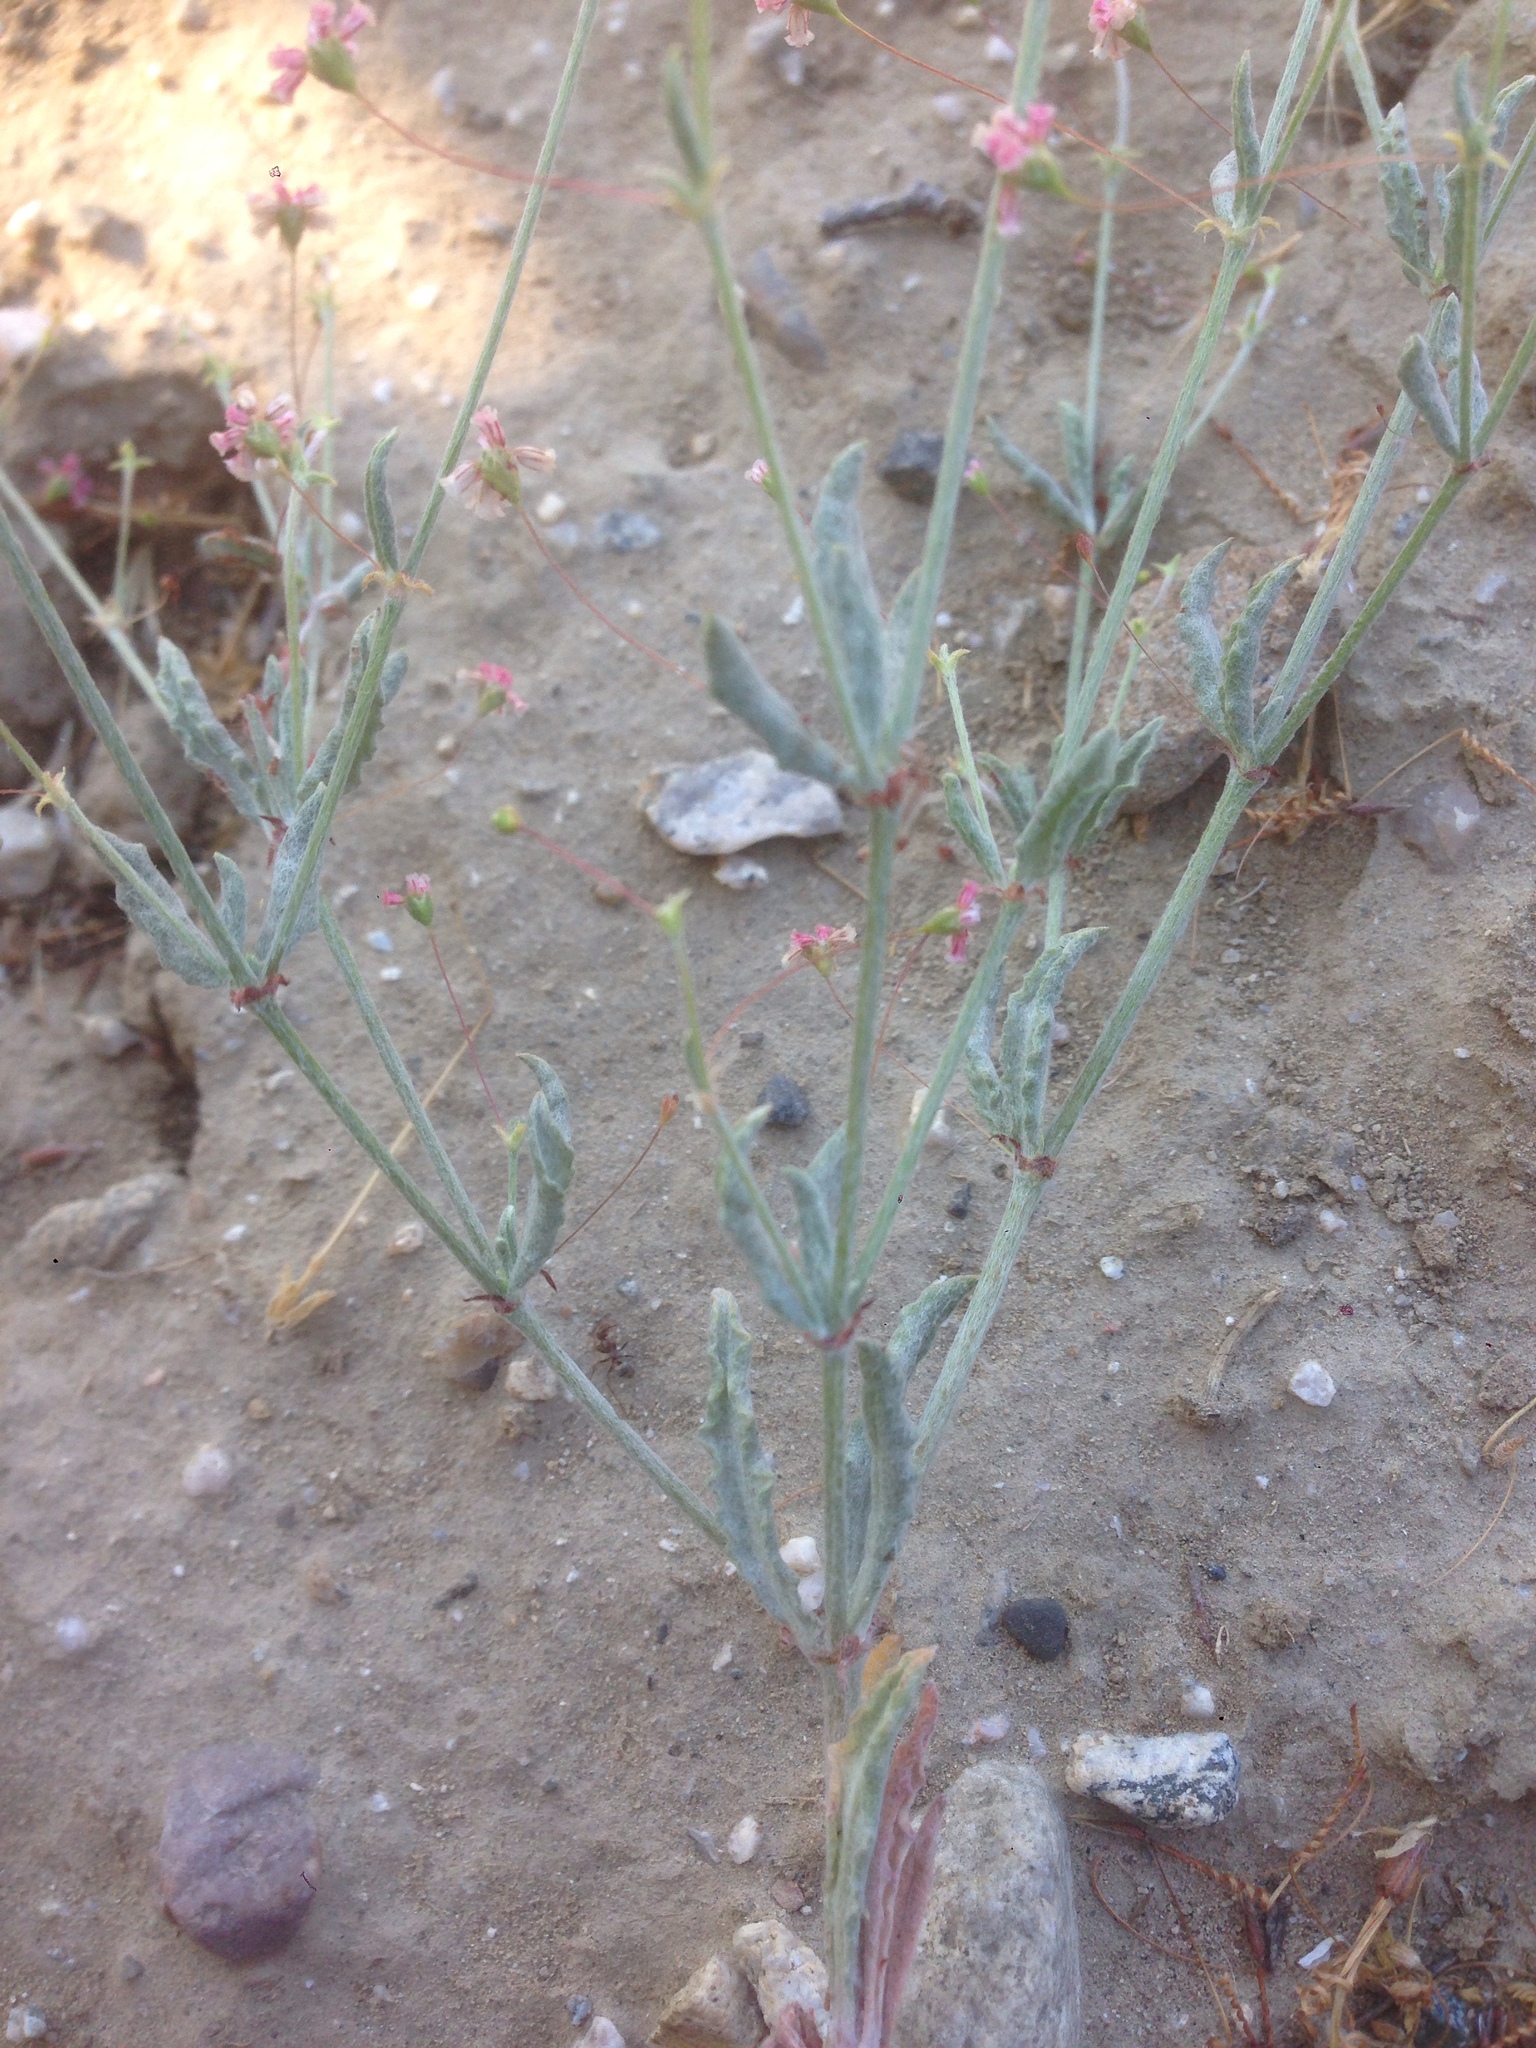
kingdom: Plantae
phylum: Tracheophyta
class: Magnoliopsida
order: Caryophyllales
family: Polygonaceae
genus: Eriogonum
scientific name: Eriogonum gracillimum
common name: Rose-and-white wild buckwheat
